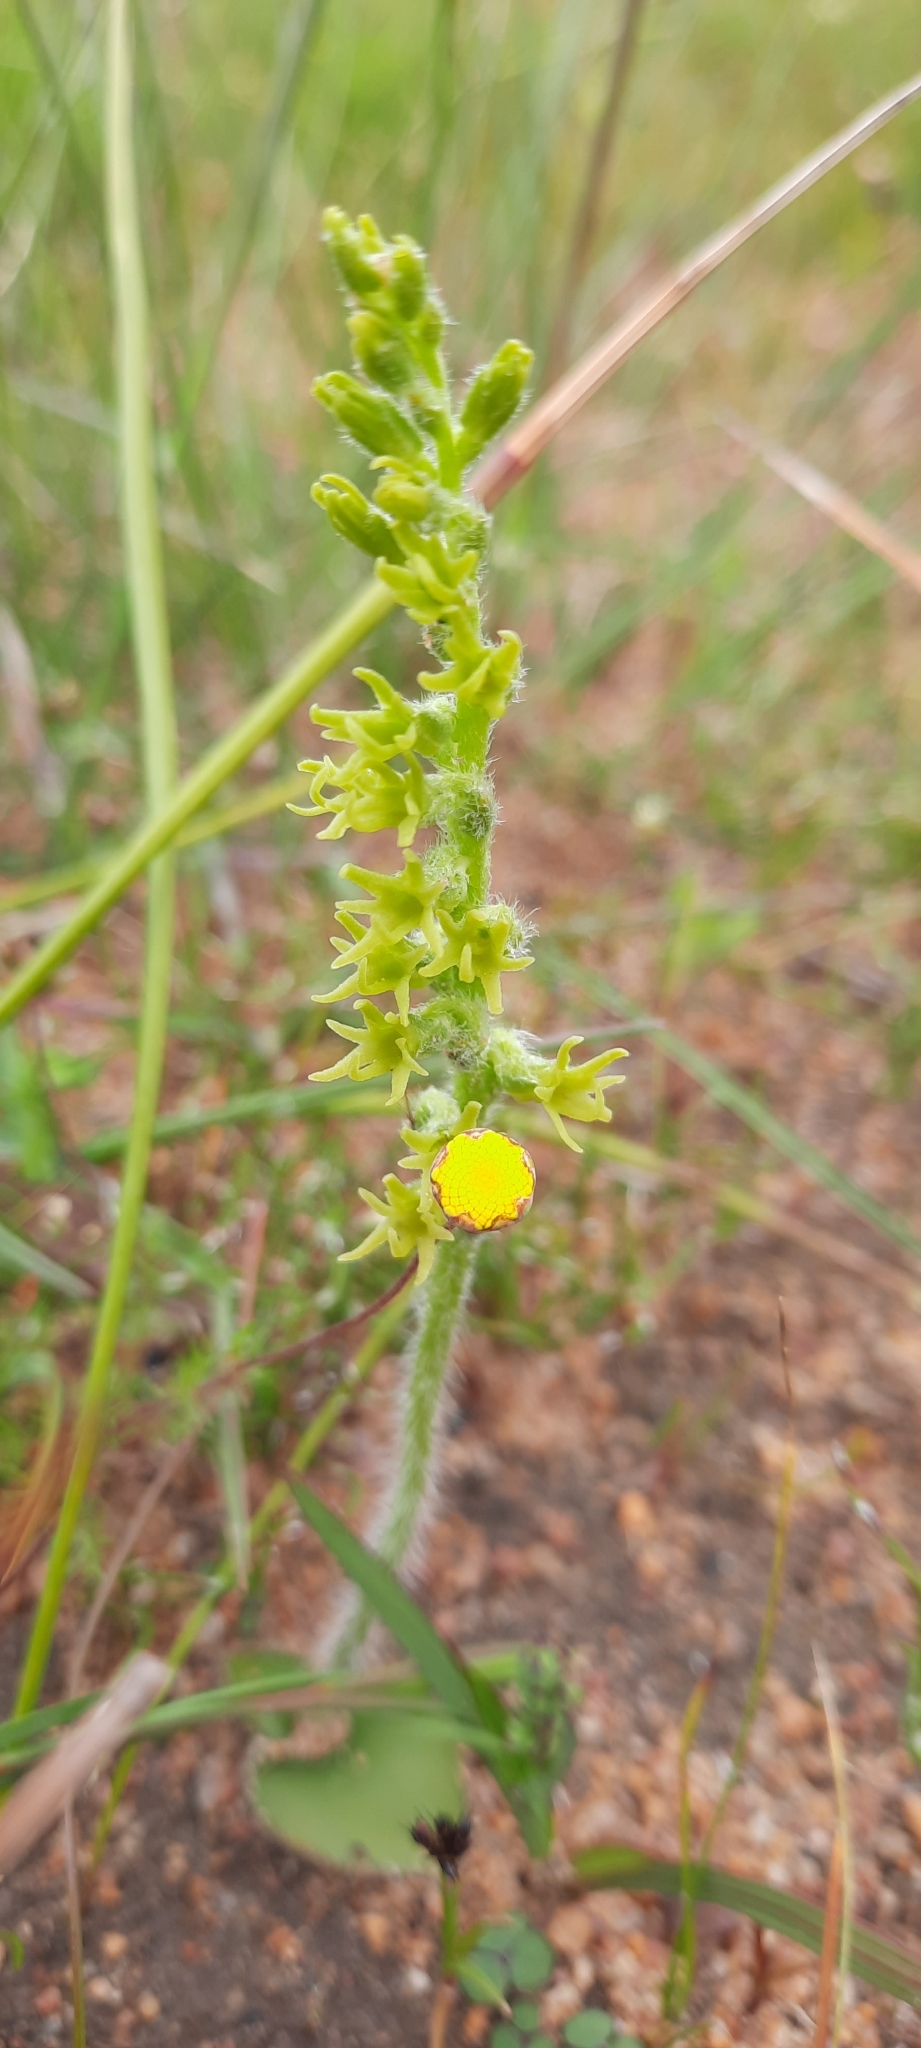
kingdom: Plantae
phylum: Tracheophyta
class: Liliopsida
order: Asparagales
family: Orchidaceae
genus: Holothrix
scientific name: Holothrix cernua
